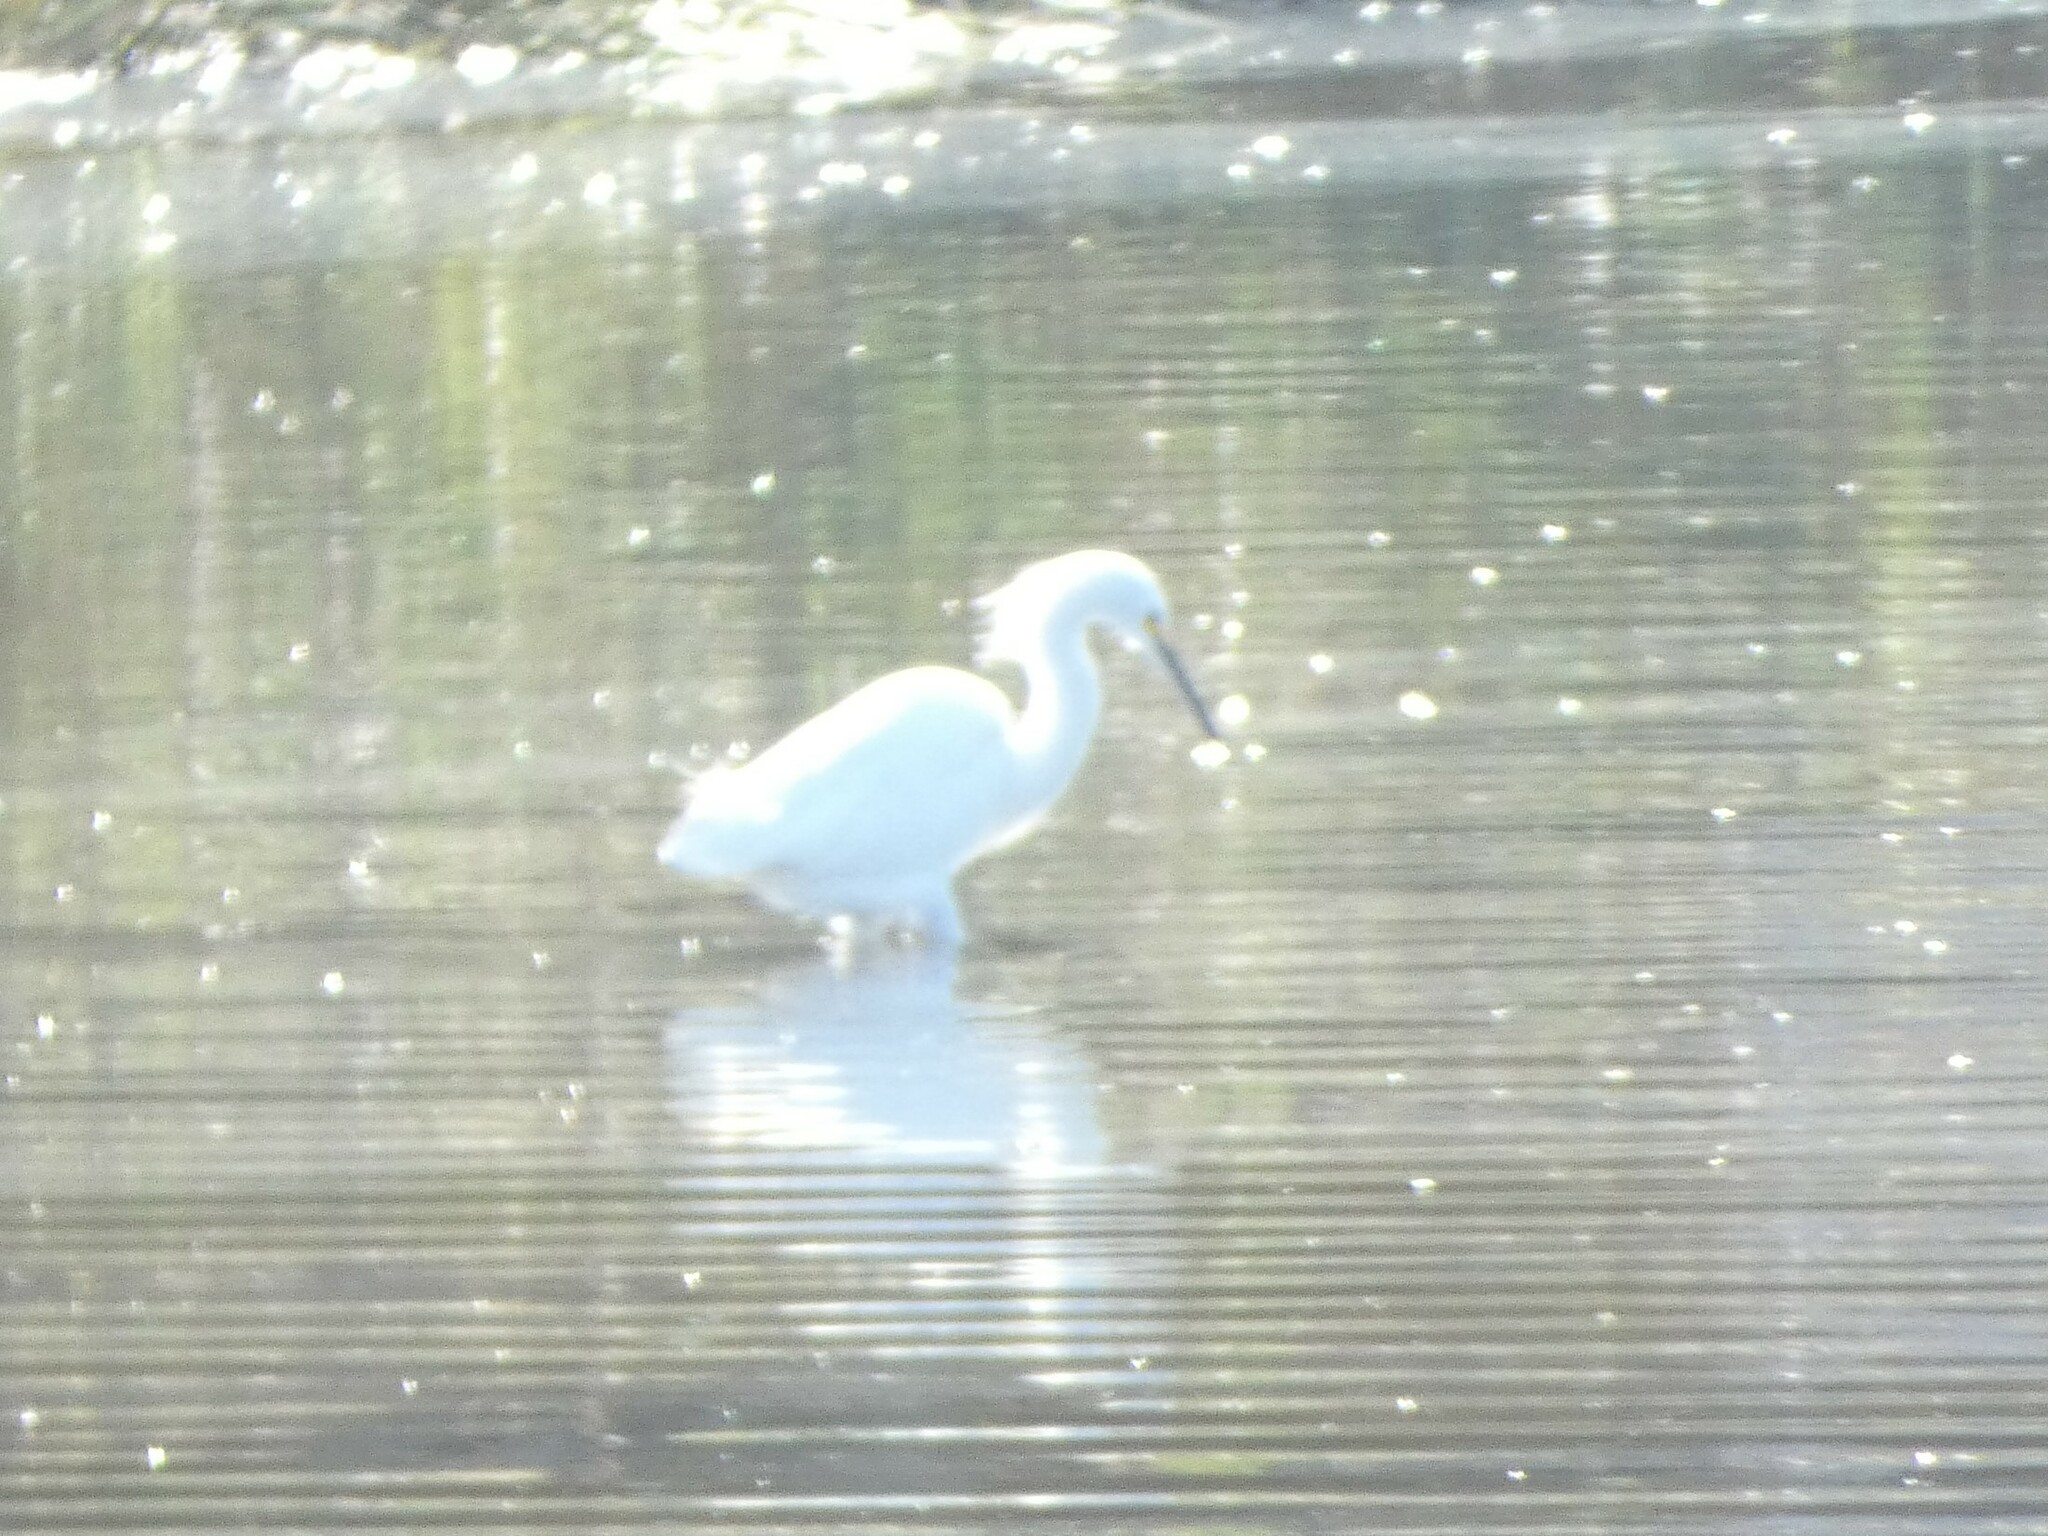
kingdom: Animalia
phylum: Chordata
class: Aves
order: Pelecaniformes
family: Ardeidae
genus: Egretta
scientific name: Egretta thula
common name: Snowy egret
